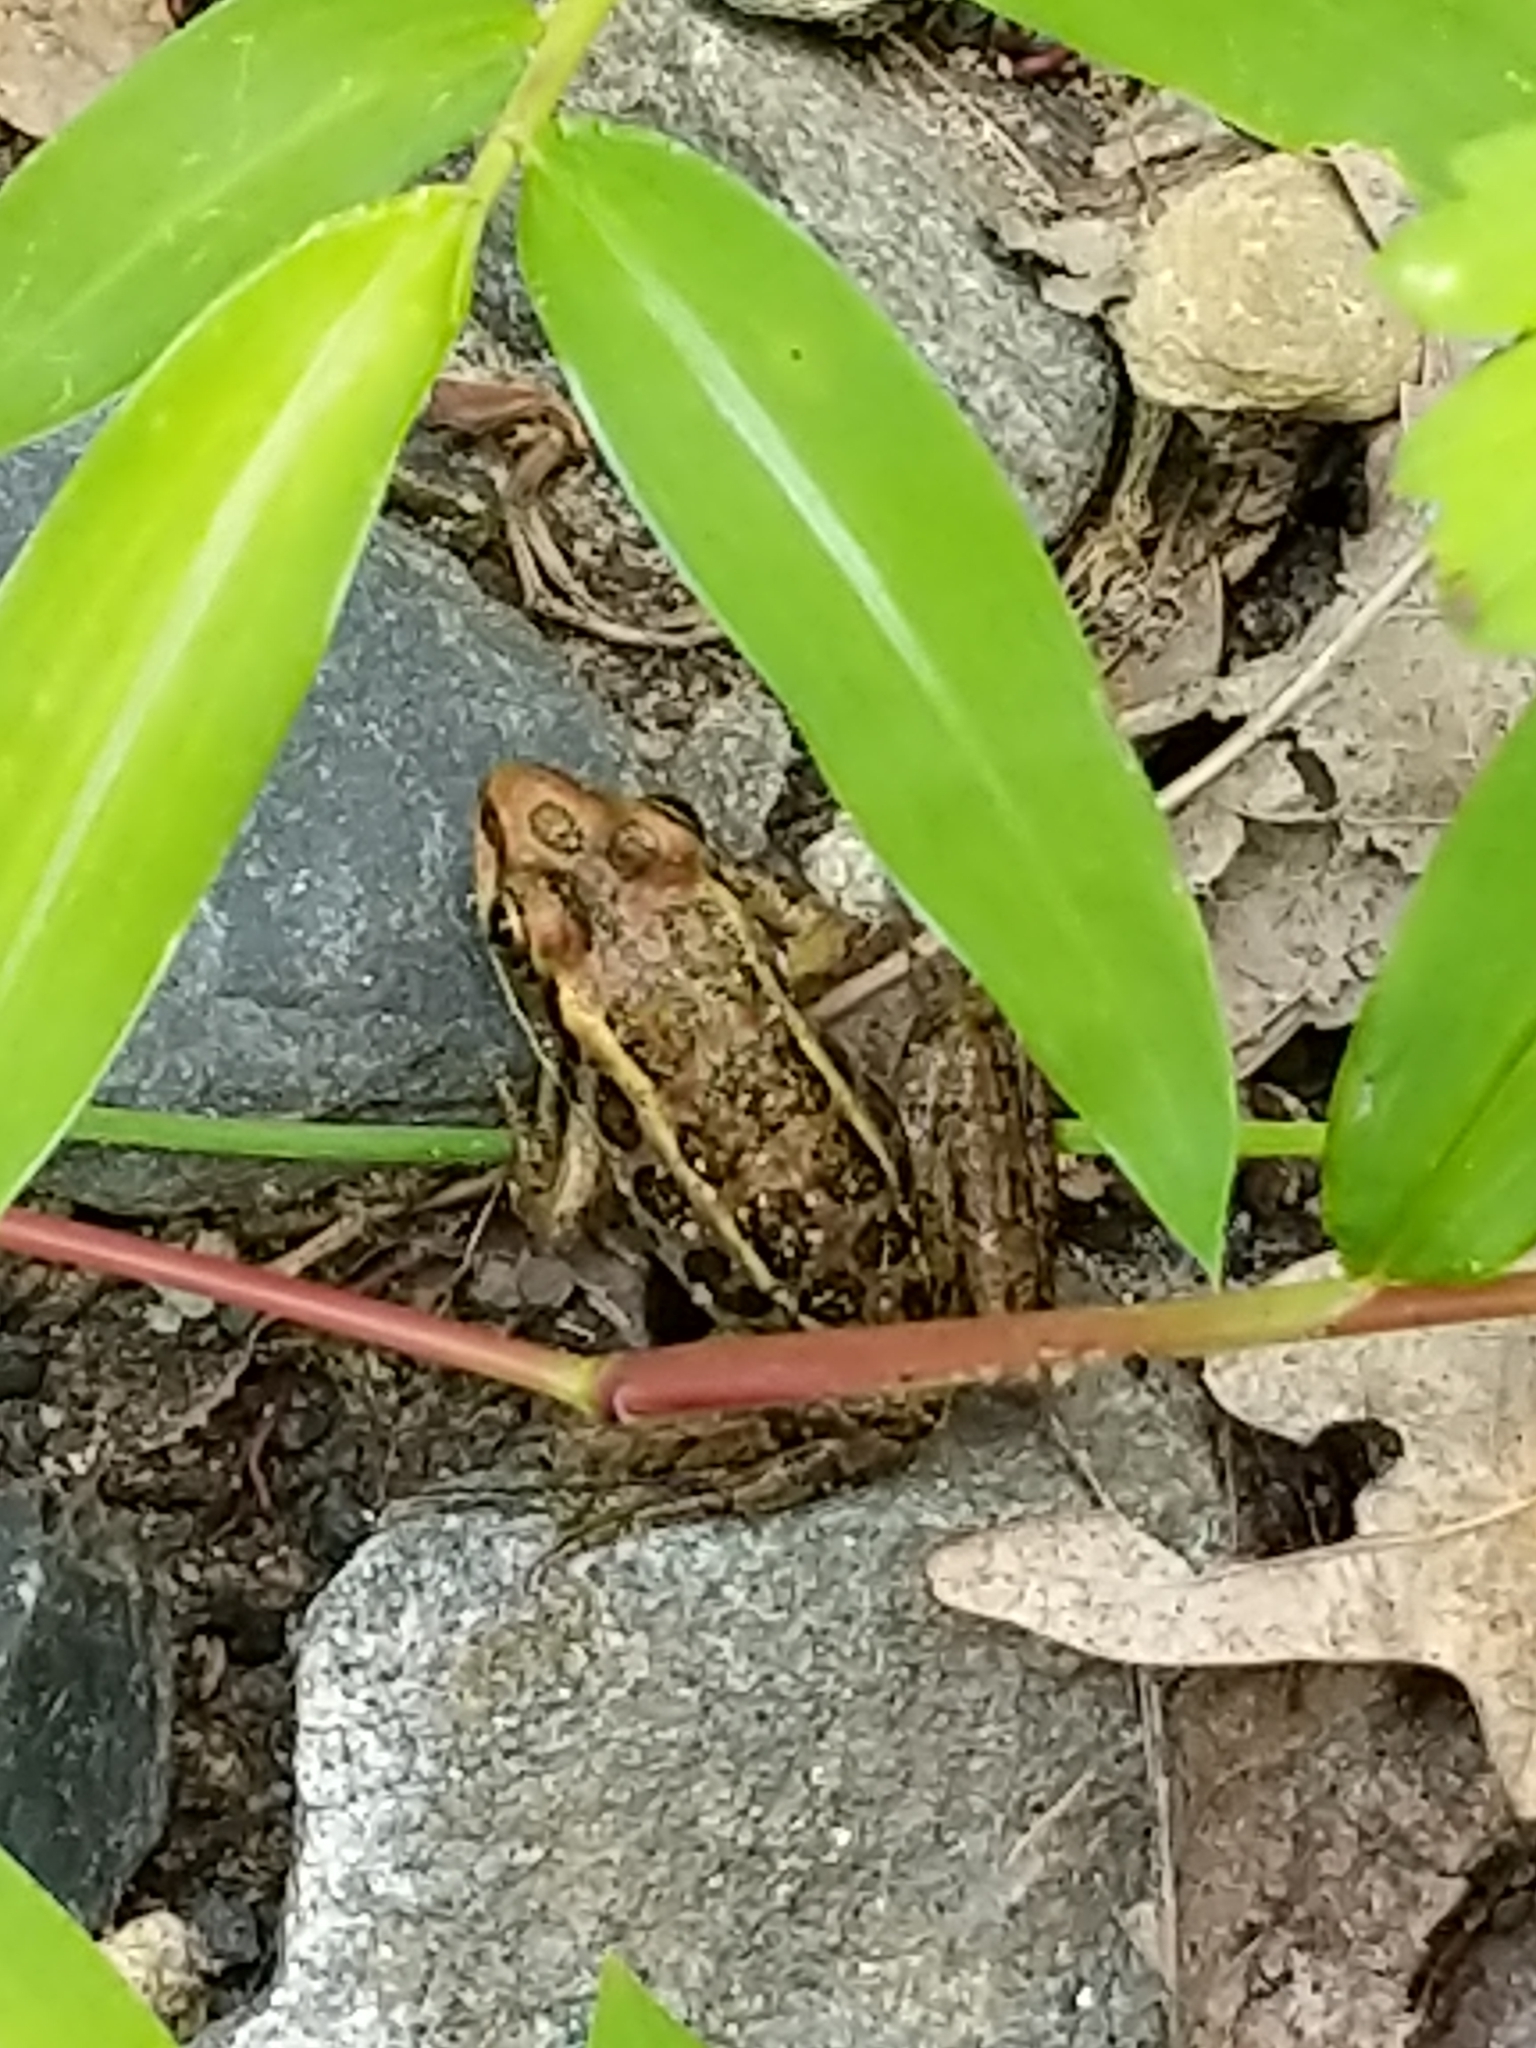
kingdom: Animalia
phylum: Chordata
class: Amphibia
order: Anura
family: Ranidae
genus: Lithobates
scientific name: Lithobates palustris
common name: Pickerel frog
